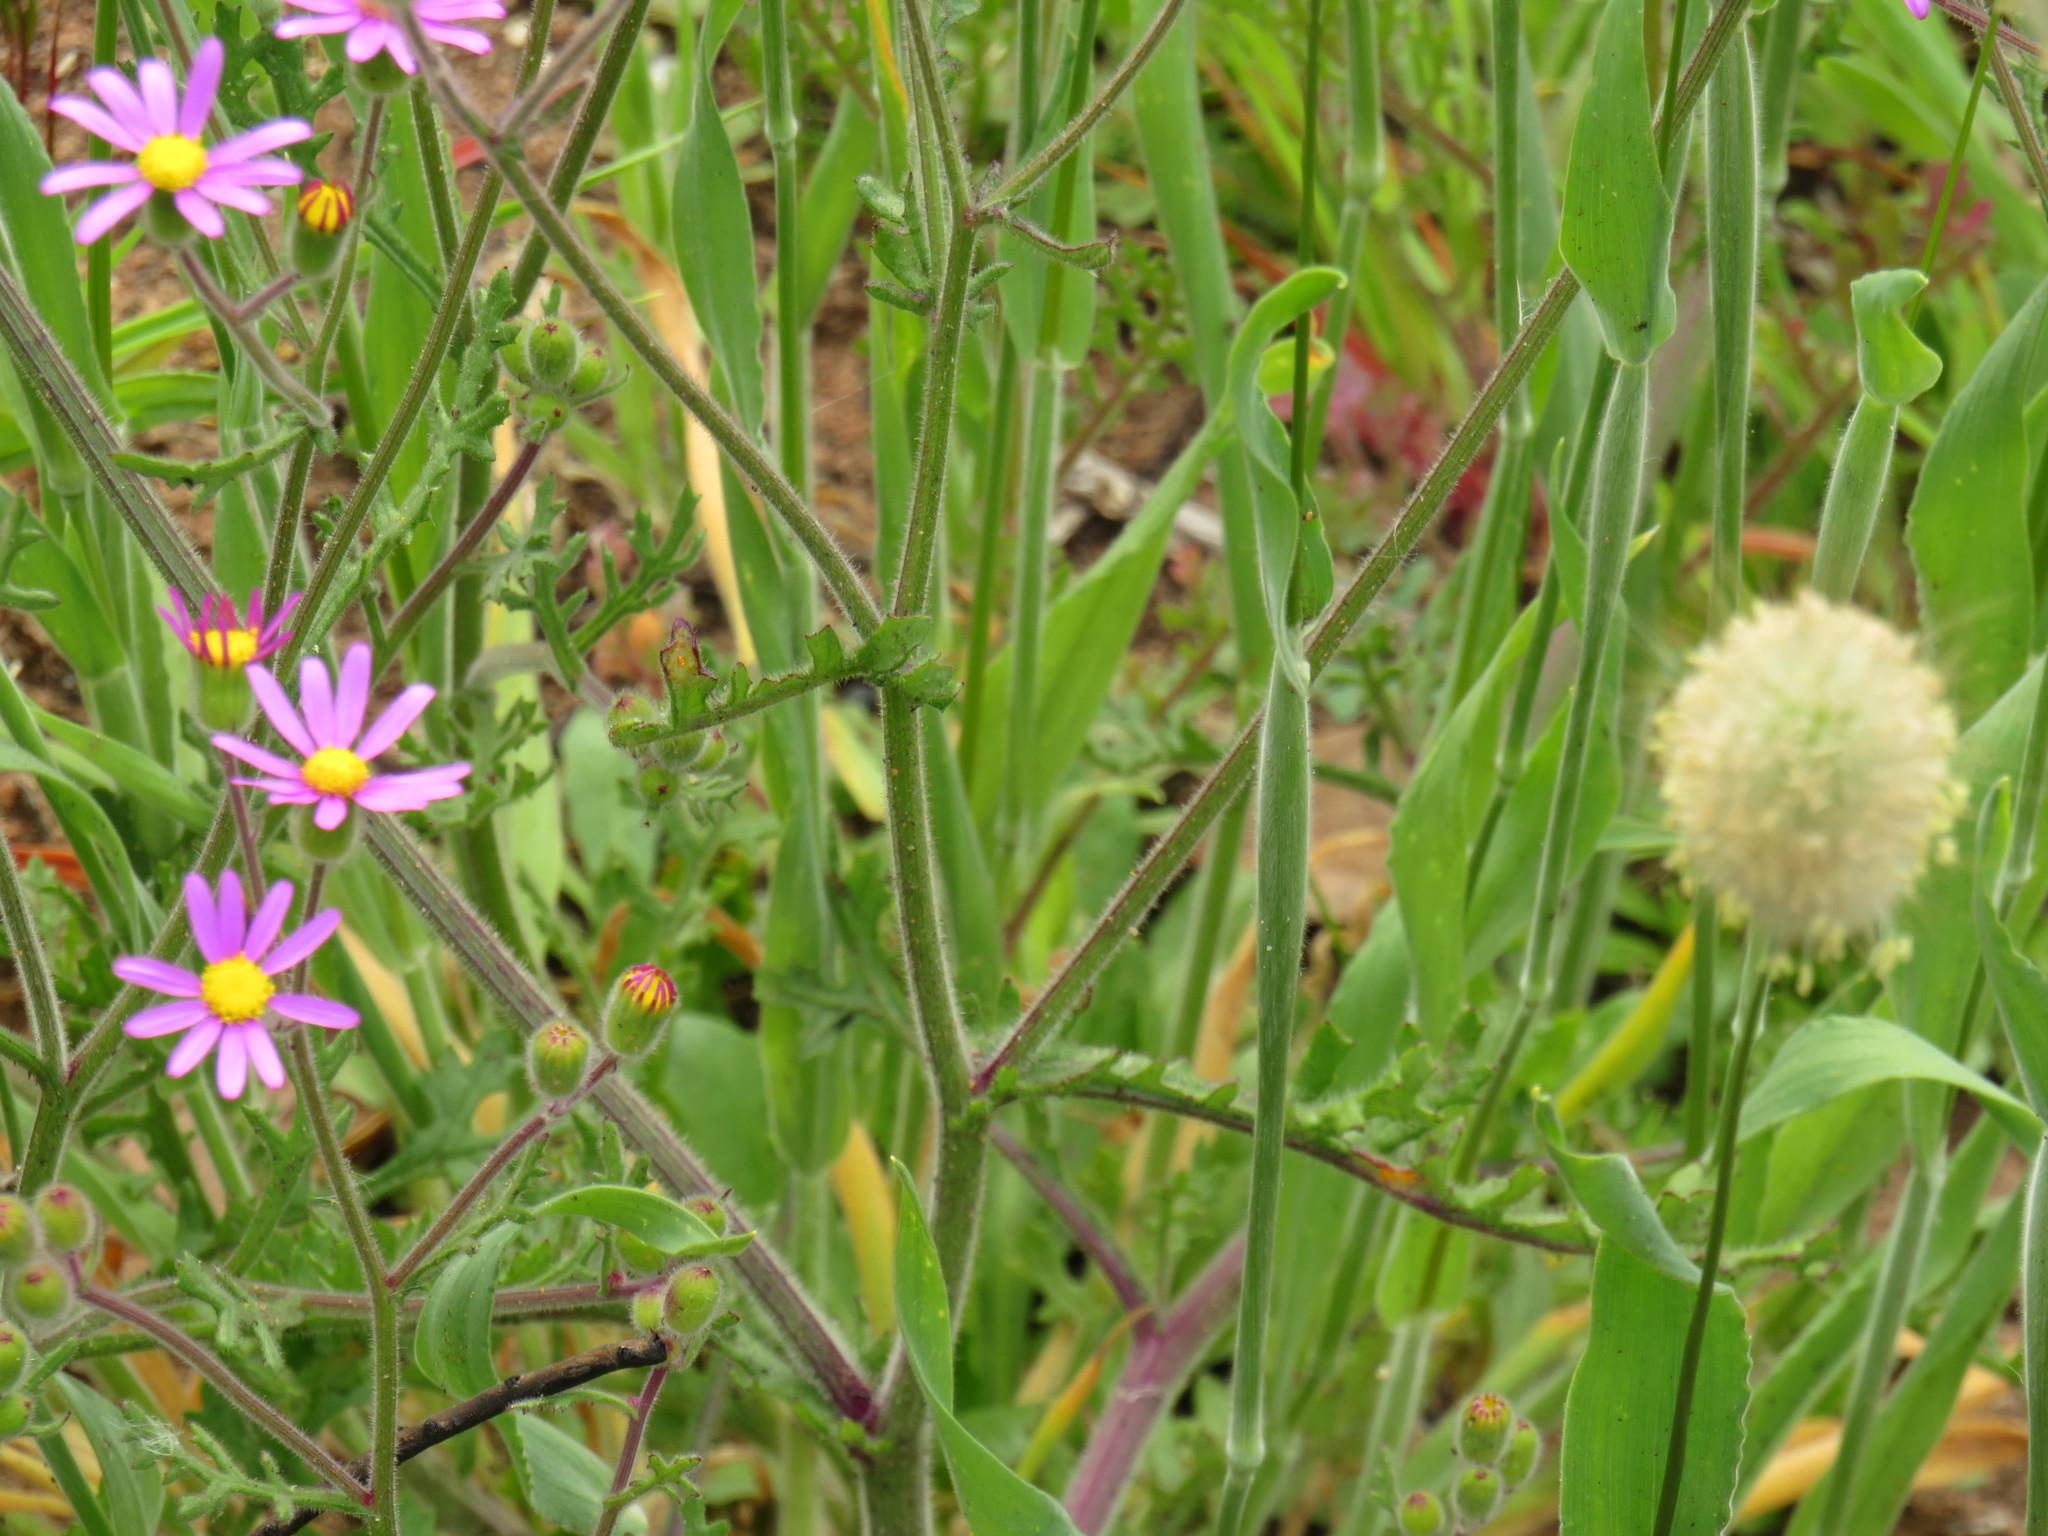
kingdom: Plantae
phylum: Tracheophyta
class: Liliopsida
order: Poales
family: Poaceae
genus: Lagurus
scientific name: Lagurus ovatus
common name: Hare's-tail
